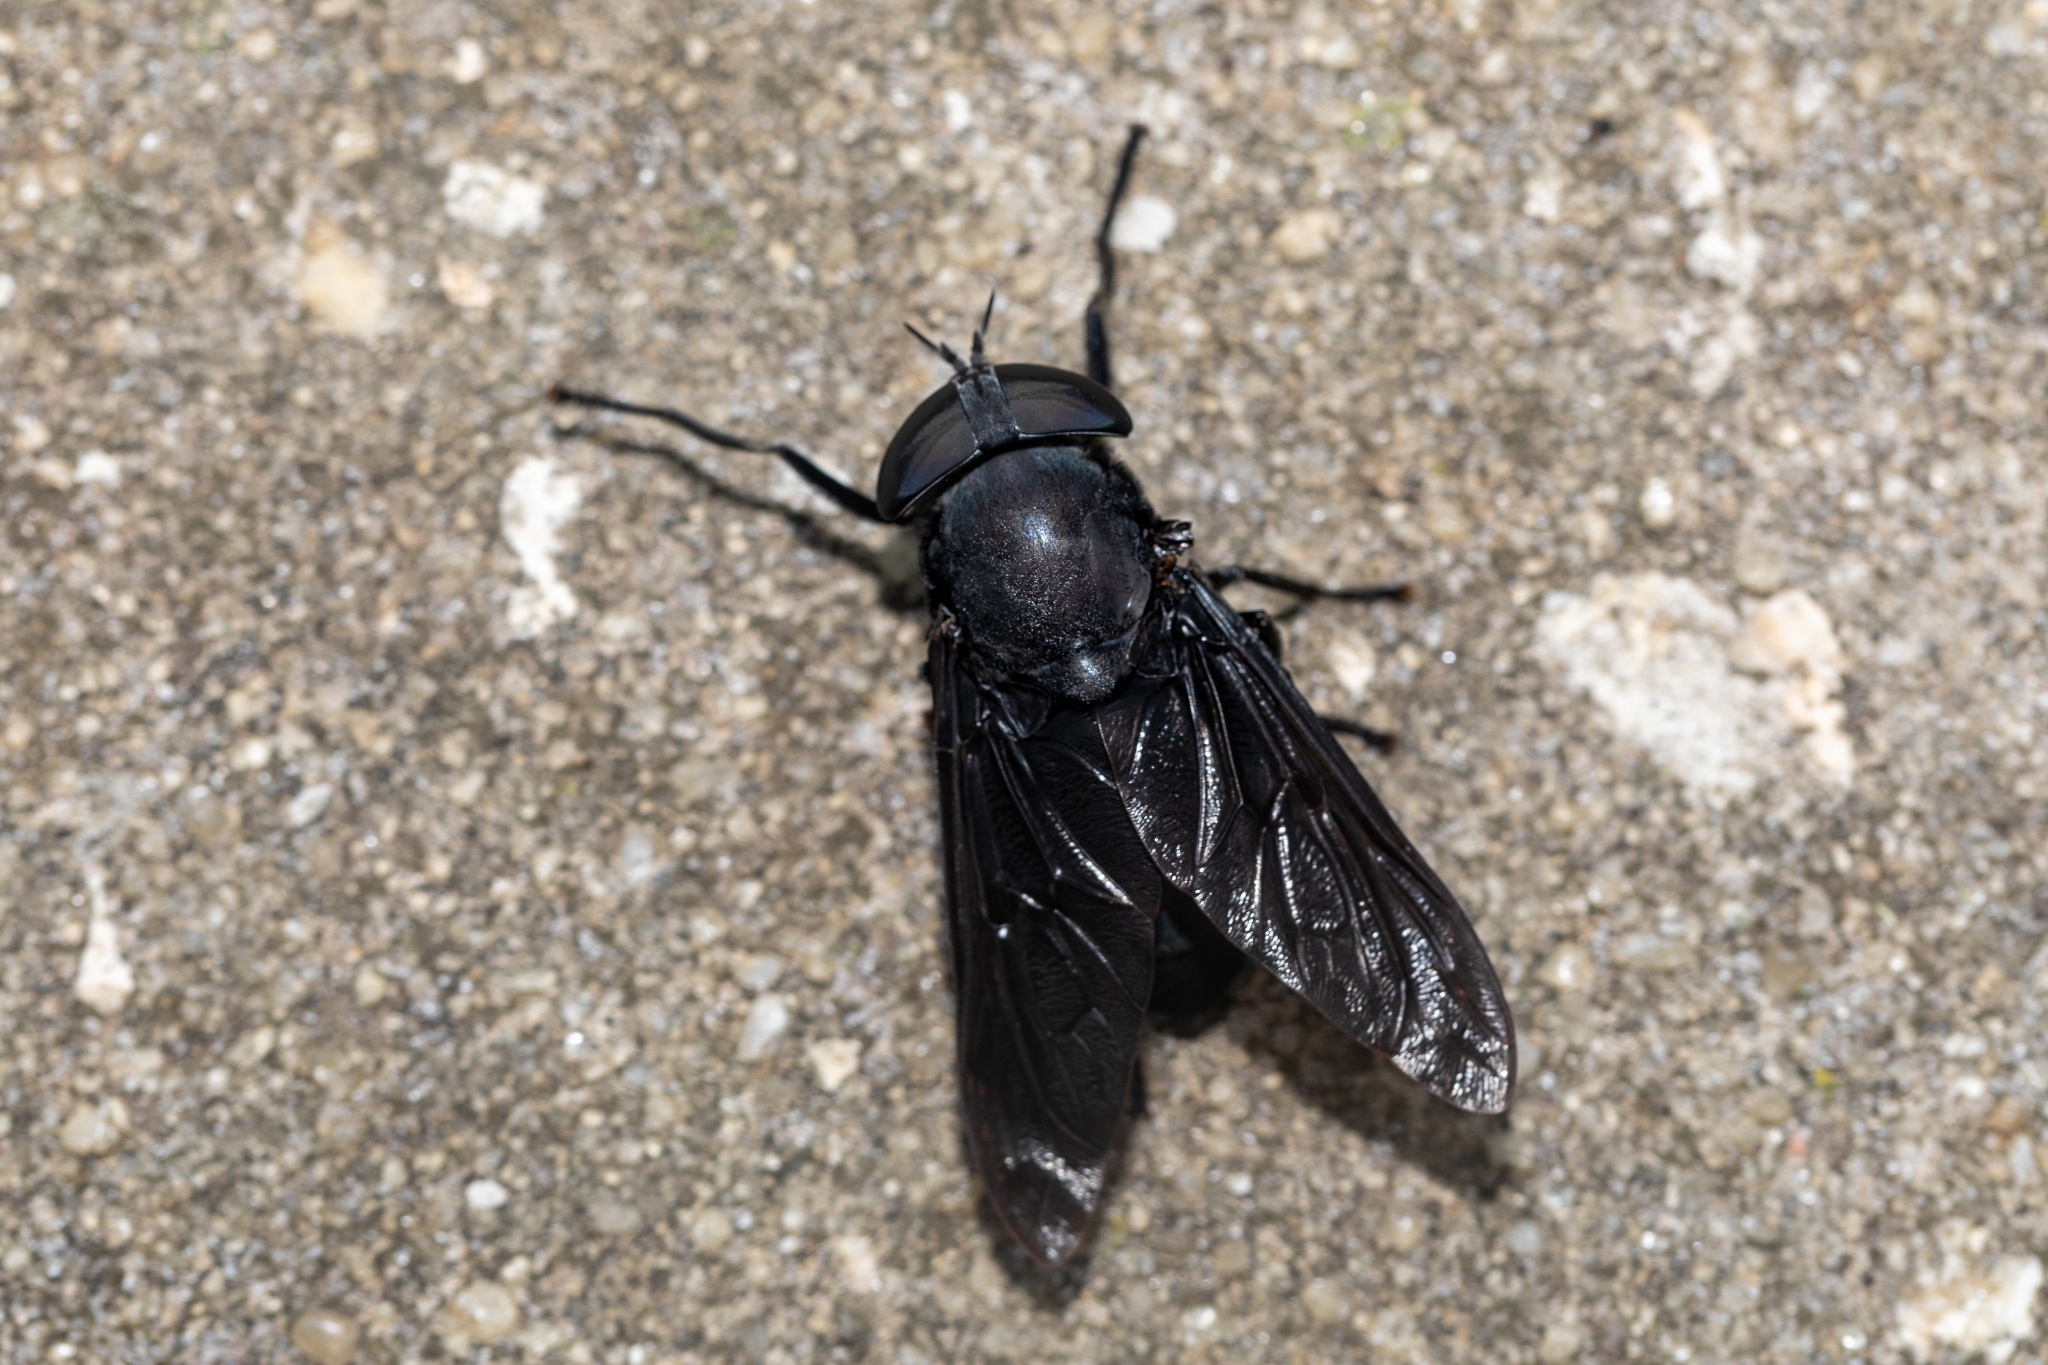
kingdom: Animalia
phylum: Arthropoda
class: Insecta
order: Diptera
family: Tabanidae
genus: Tabanus
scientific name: Tabanus atratus
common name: Black horse fly
